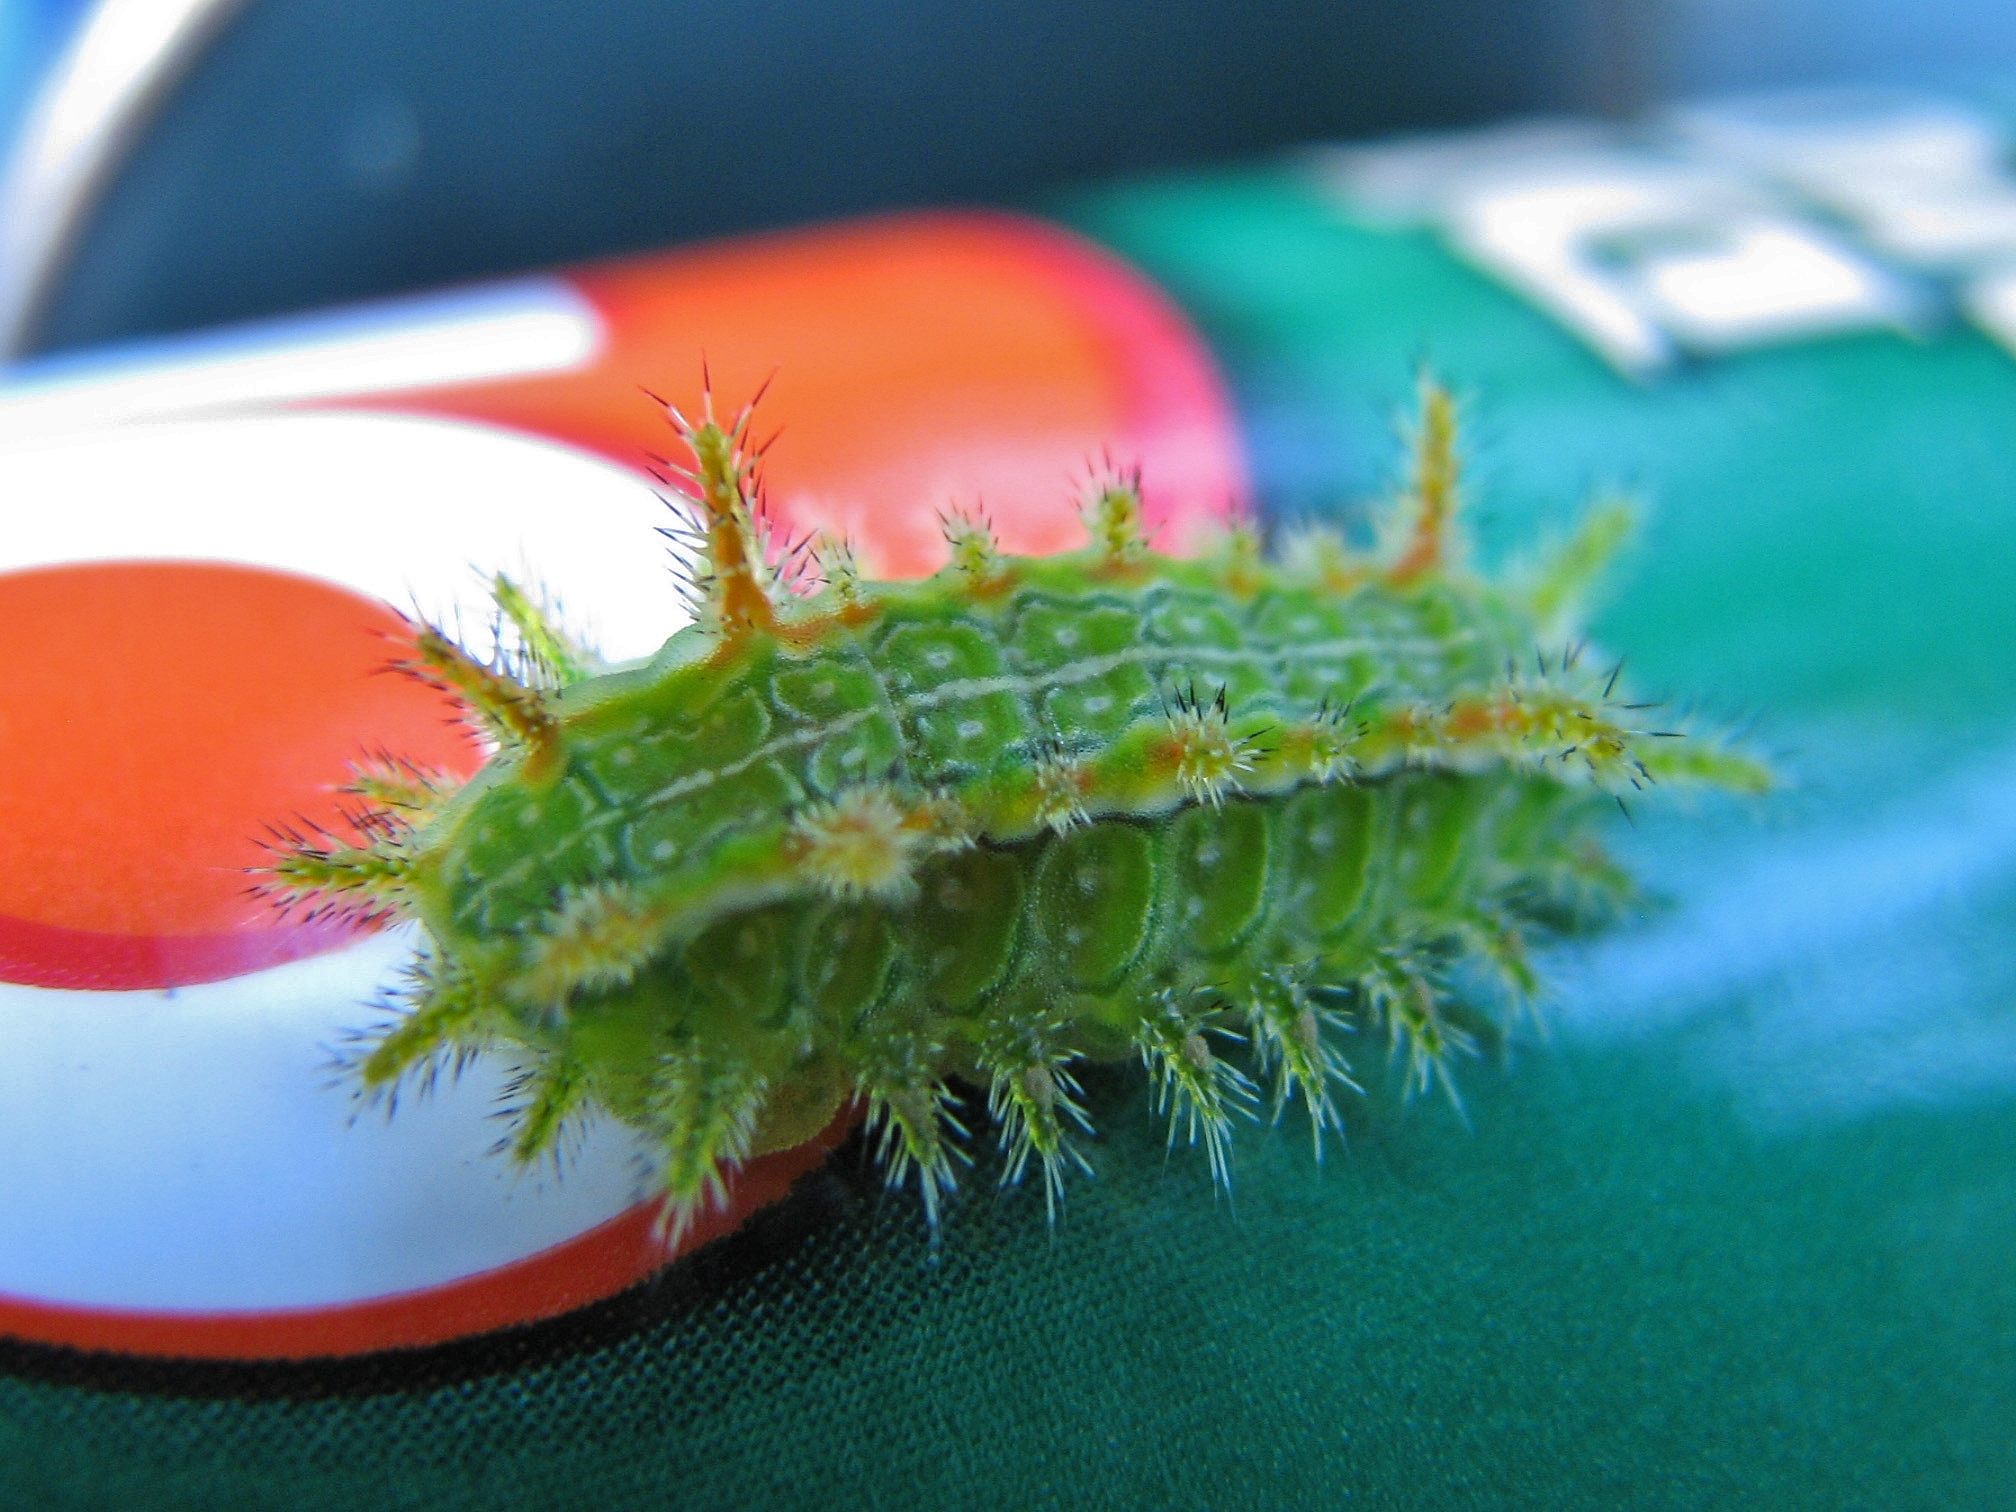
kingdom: Animalia
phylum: Arthropoda
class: Insecta
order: Lepidoptera
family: Limacodidae
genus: Euclea
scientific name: Euclea incisa
